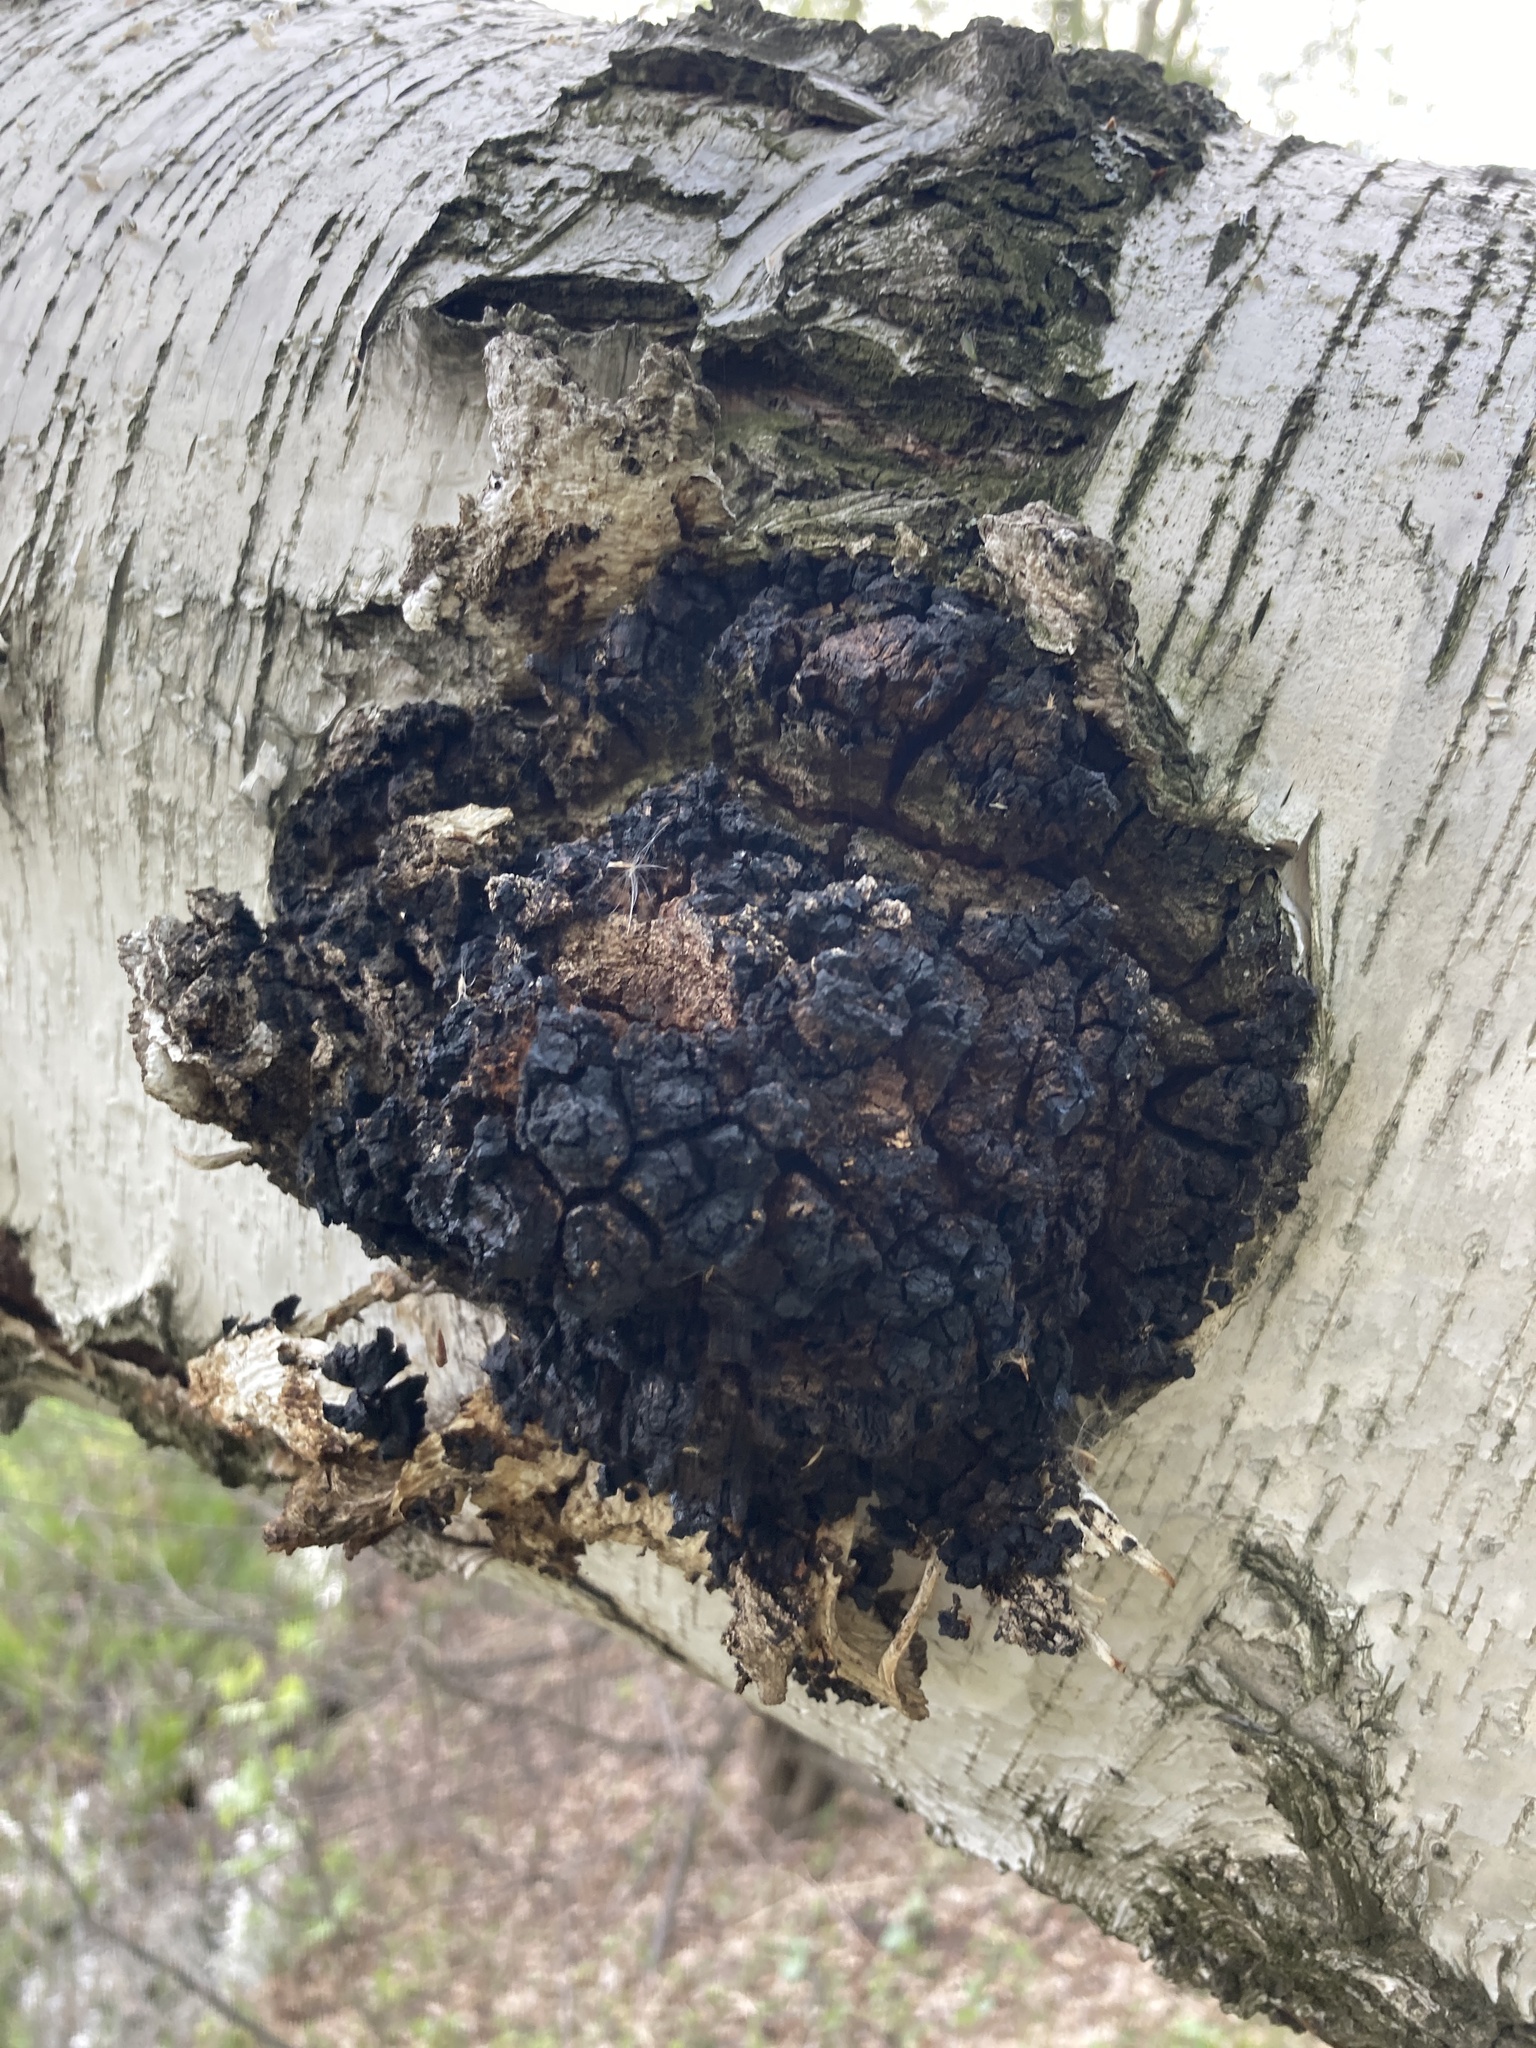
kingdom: Fungi
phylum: Basidiomycota
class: Agaricomycetes
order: Hymenochaetales
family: Hymenochaetaceae
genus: Inonotus
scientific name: Inonotus obliquus
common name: Chaga
